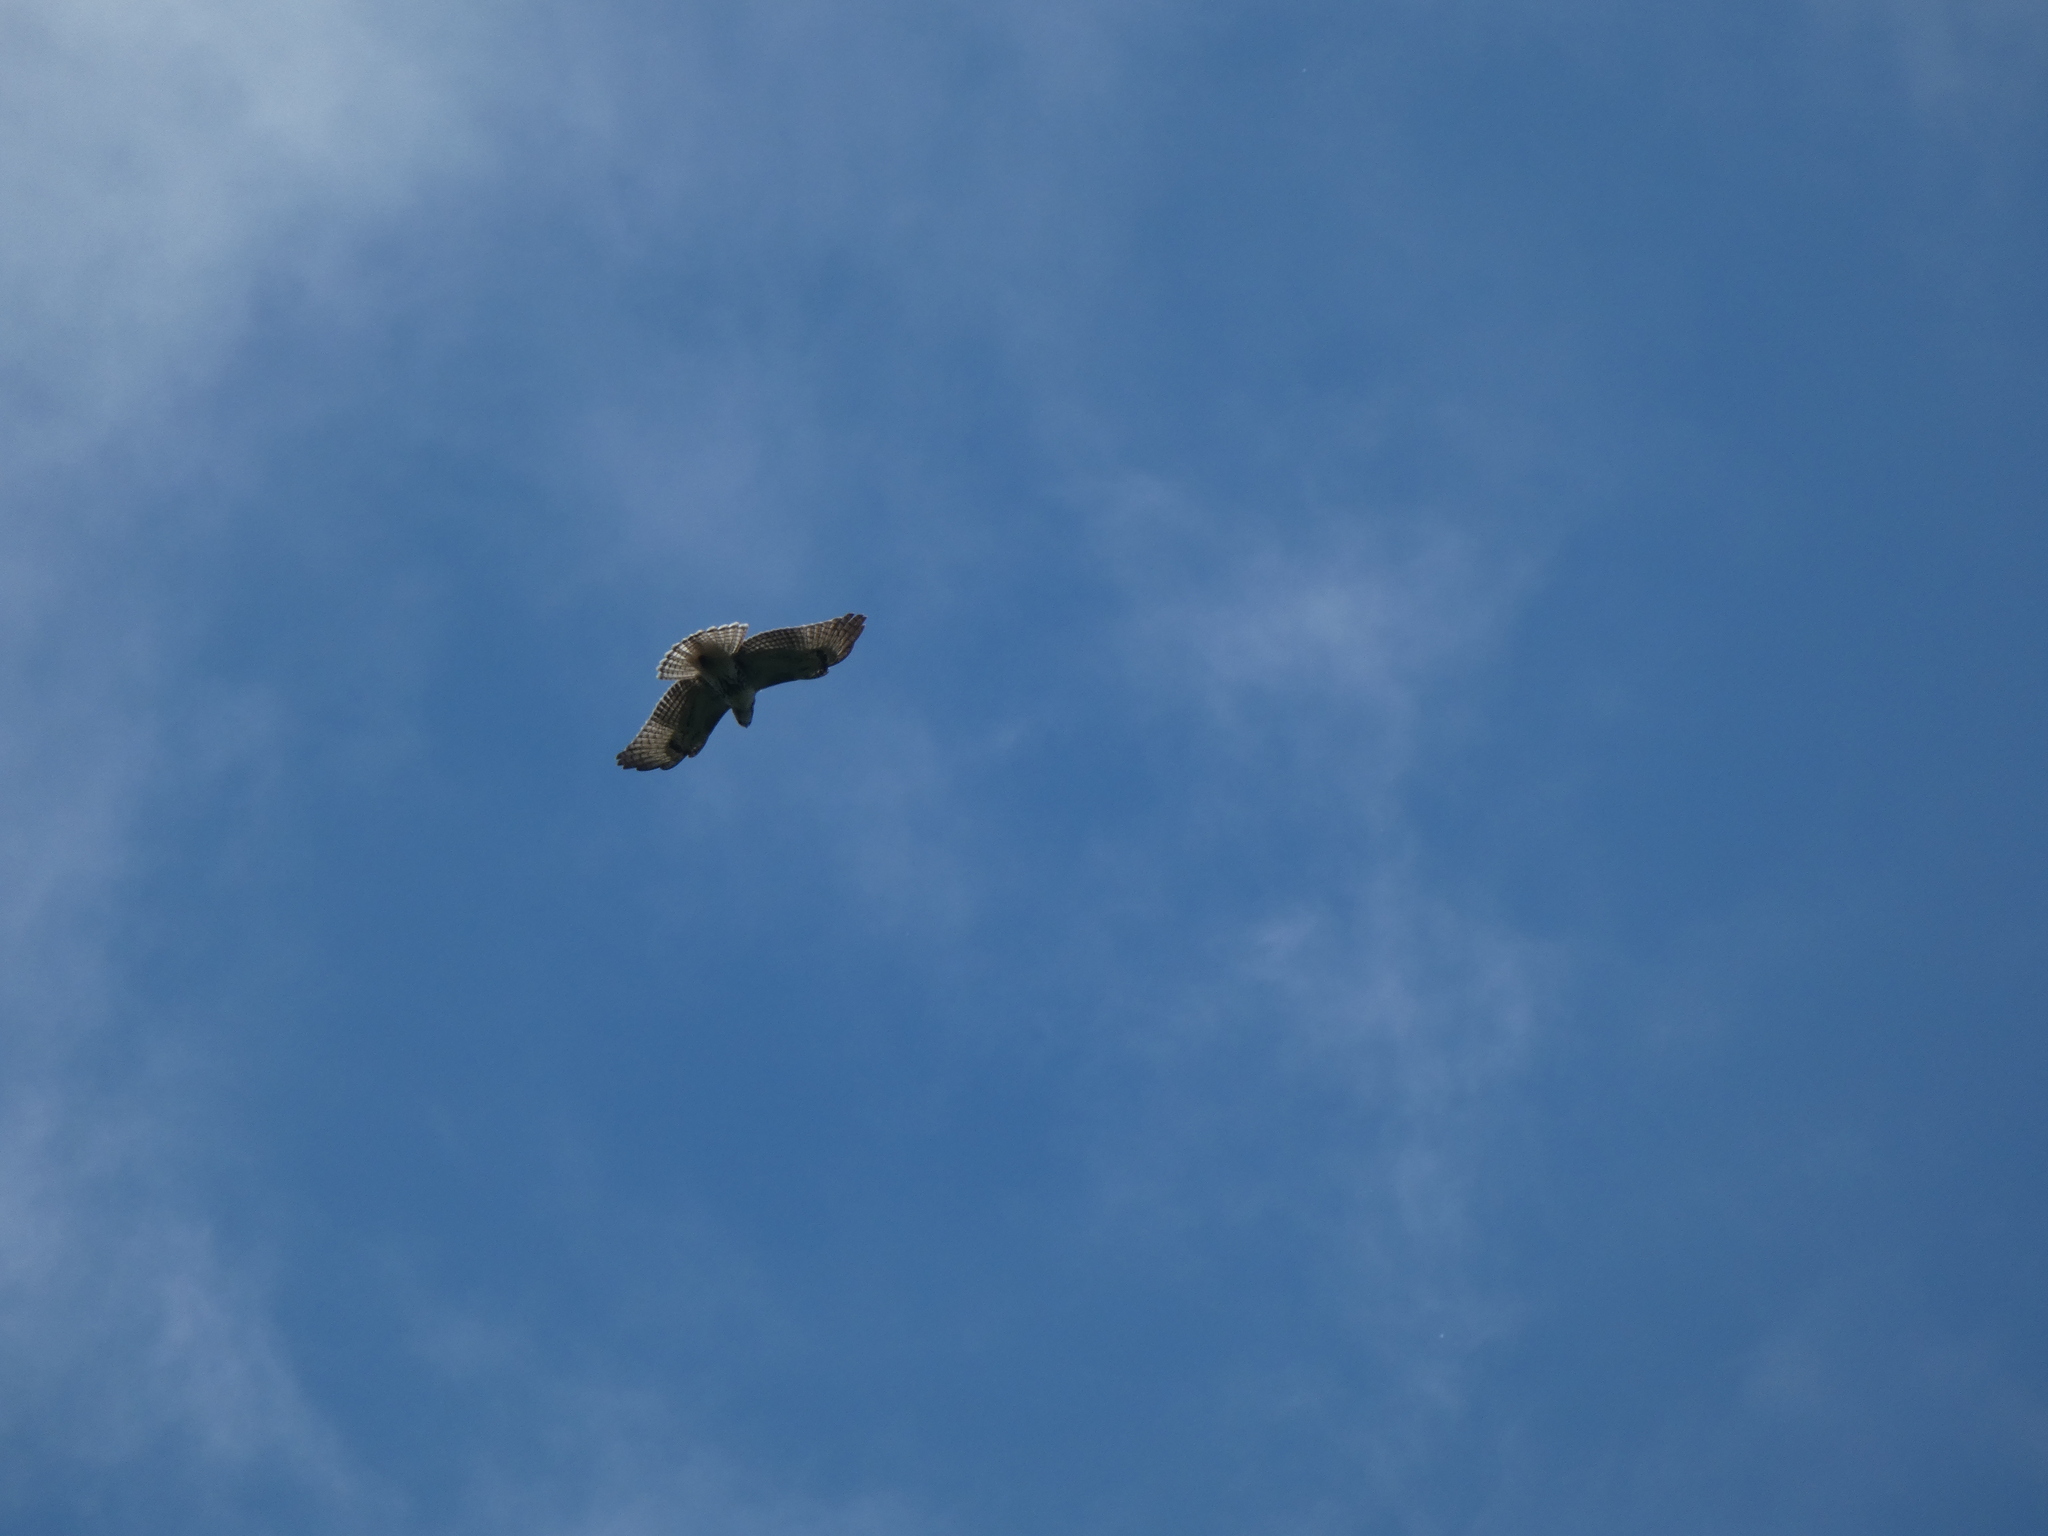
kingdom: Animalia
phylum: Chordata
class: Aves
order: Accipitriformes
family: Accipitridae
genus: Buteo
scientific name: Buteo jamaicensis
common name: Red-tailed hawk
